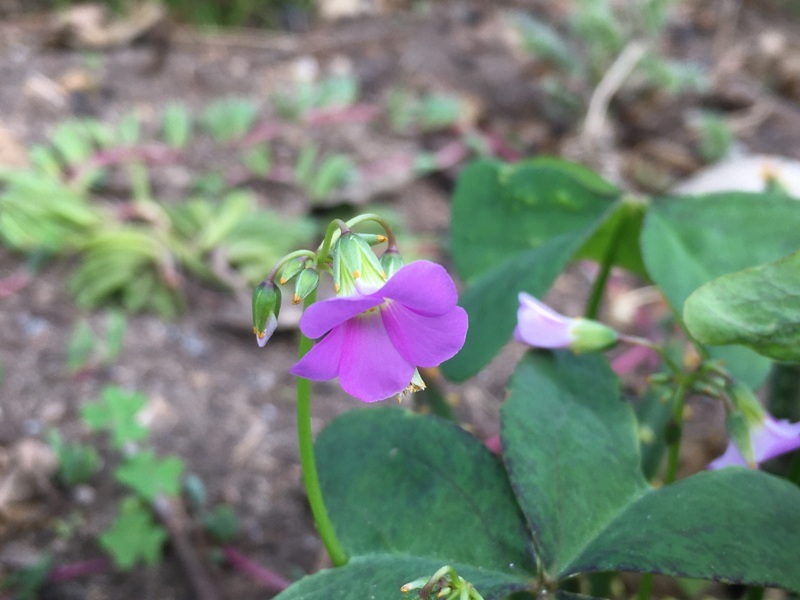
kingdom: Plantae
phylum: Tracheophyta
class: Magnoliopsida
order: Oxalidales
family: Oxalidaceae
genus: Oxalis
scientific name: Oxalis latifolia
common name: Garden pink-sorrel
